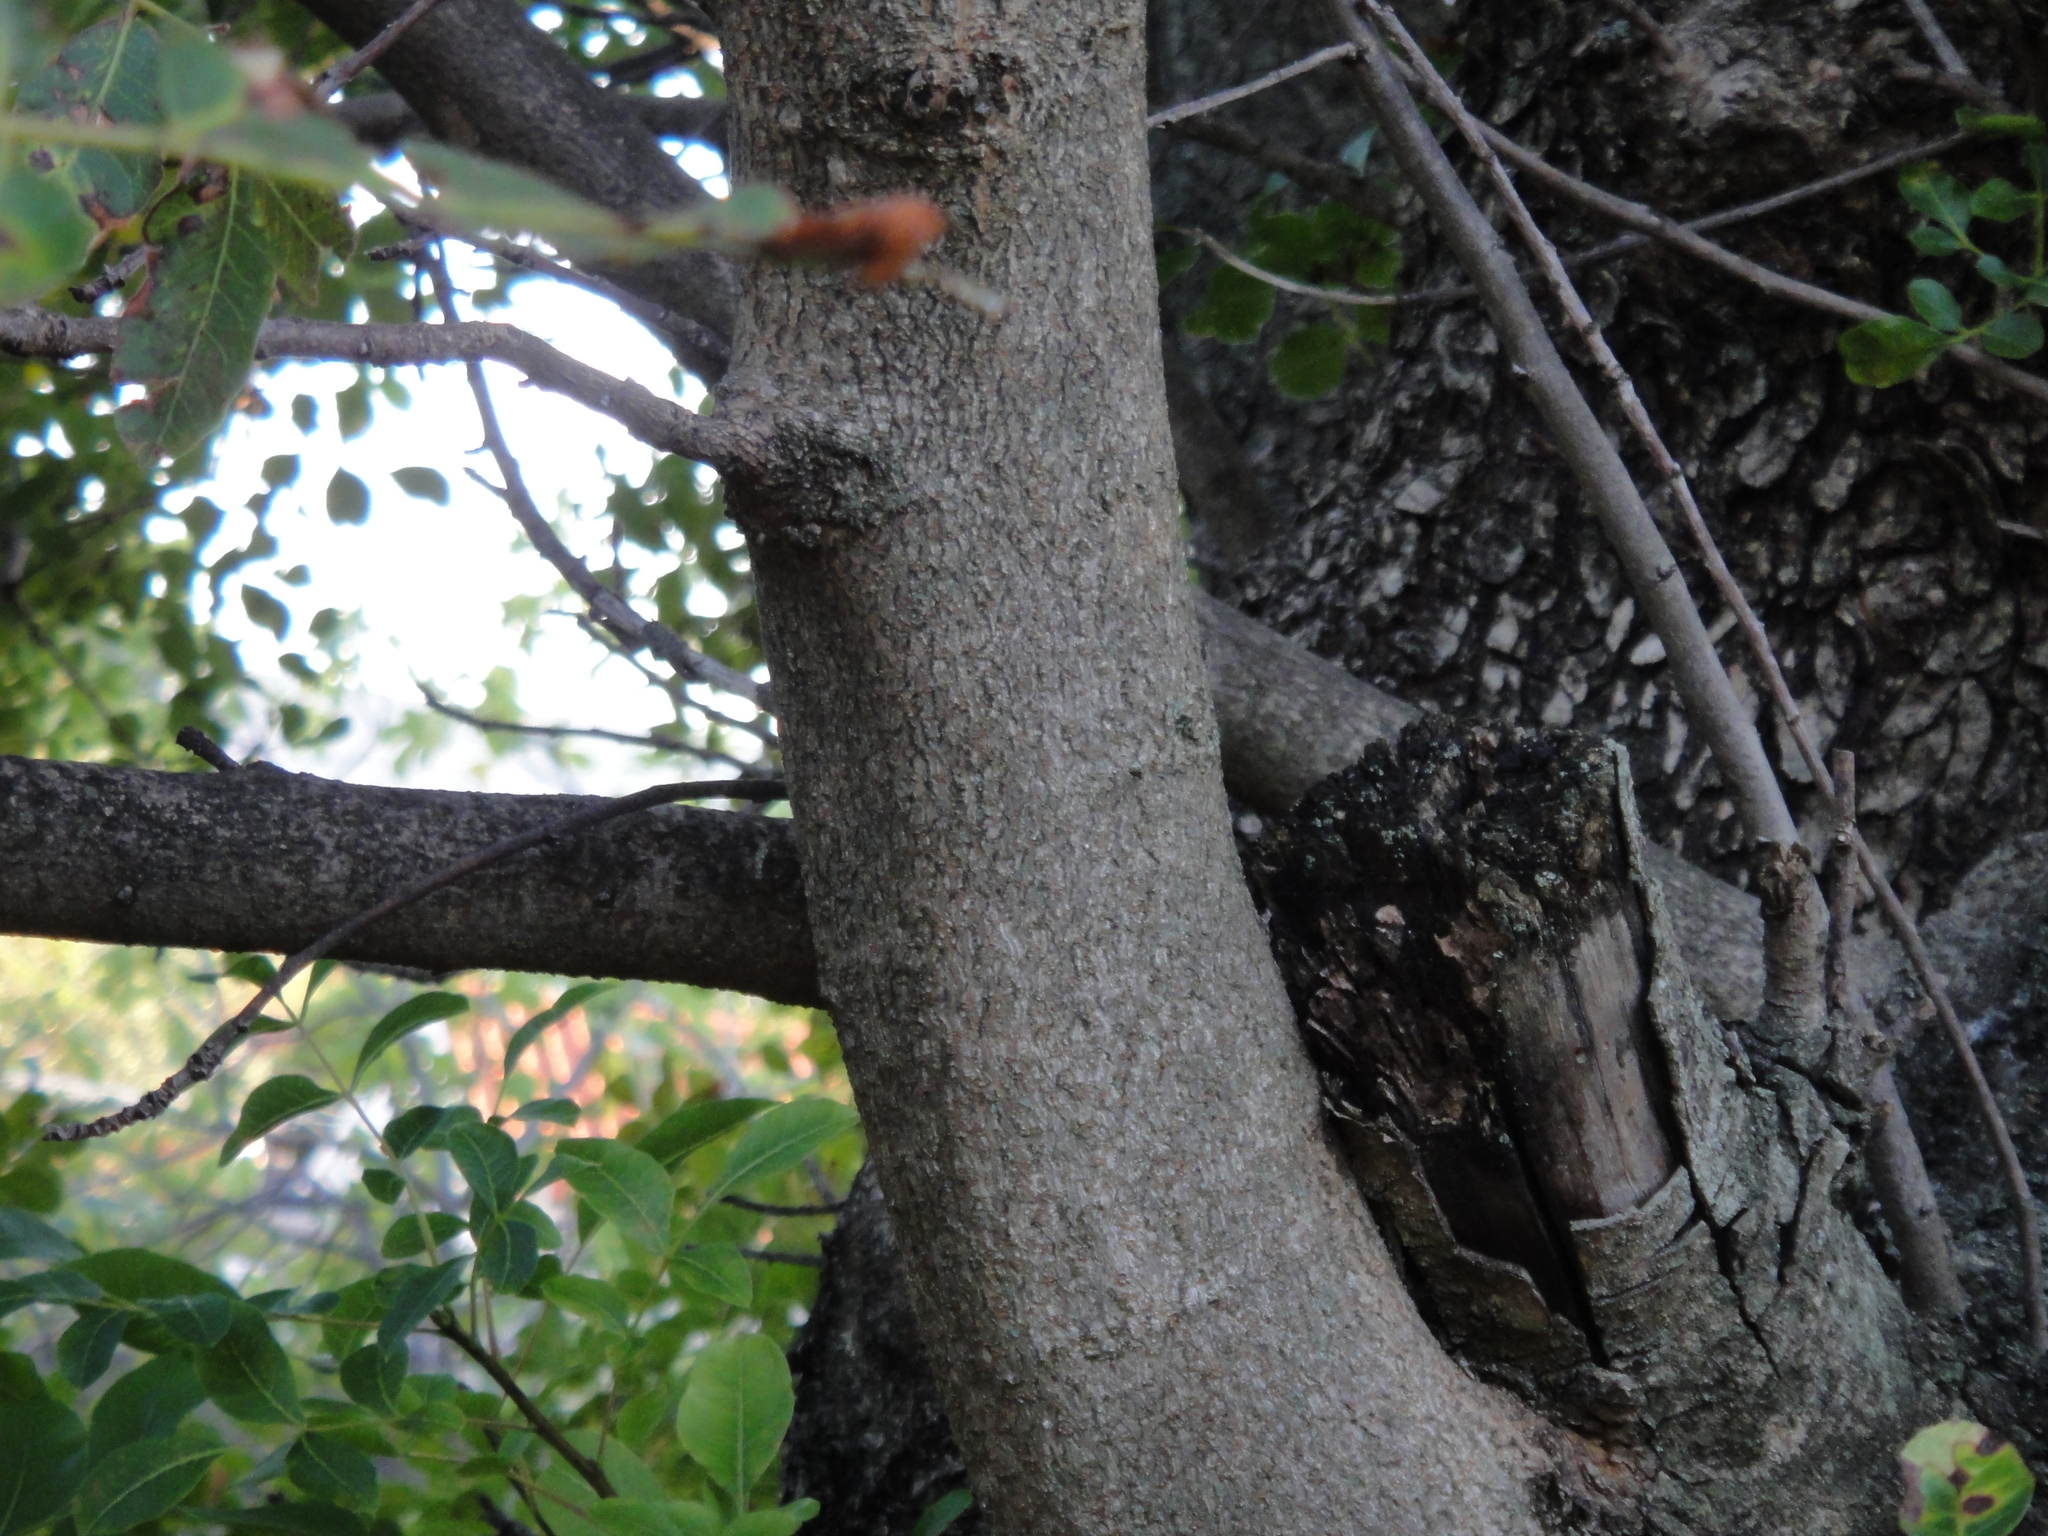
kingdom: Plantae
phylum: Tracheophyta
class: Magnoliopsida
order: Sapindales
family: Anacardiaceae
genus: Pistacia
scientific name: Pistacia terebinthus
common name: Terebinth
